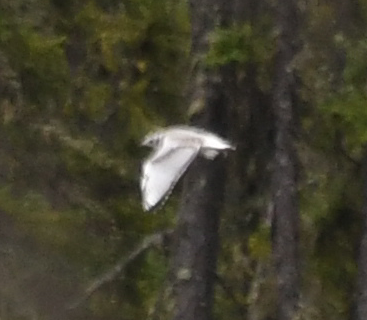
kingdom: Animalia
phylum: Chordata
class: Aves
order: Charadriiformes
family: Laridae
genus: Chroicocephalus
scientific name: Chroicocephalus philadelphia
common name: Bonaparte's gull
